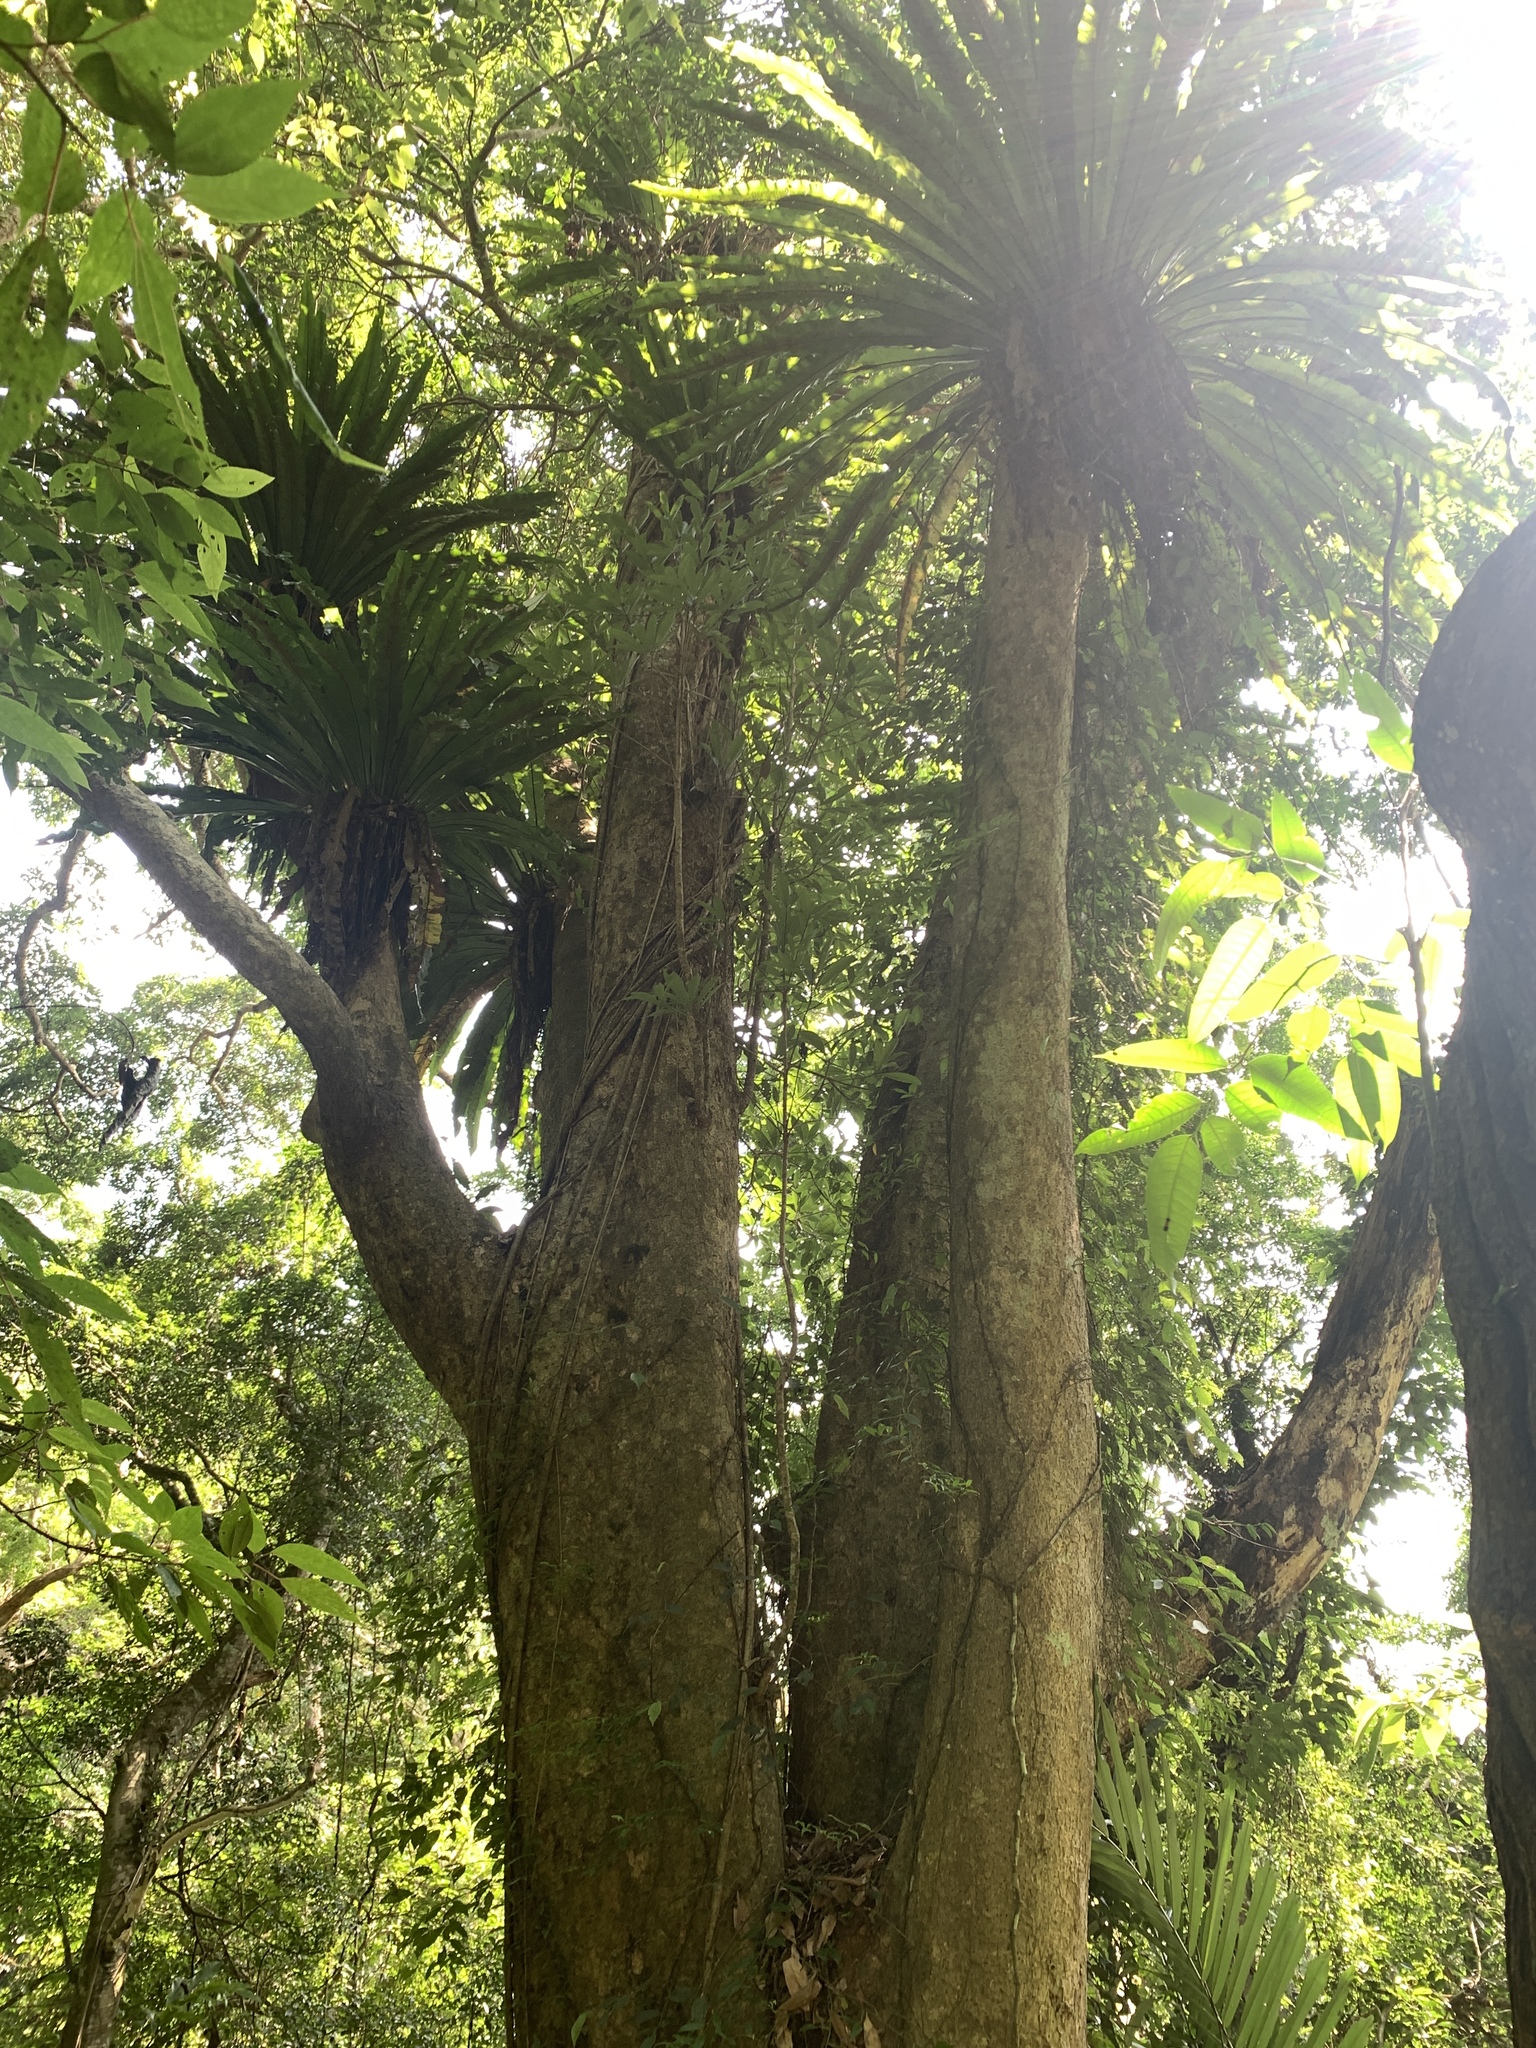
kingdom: Plantae
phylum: Tracheophyta
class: Magnoliopsida
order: Laurales
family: Lauraceae
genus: Machilus
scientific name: Machilus japonica
